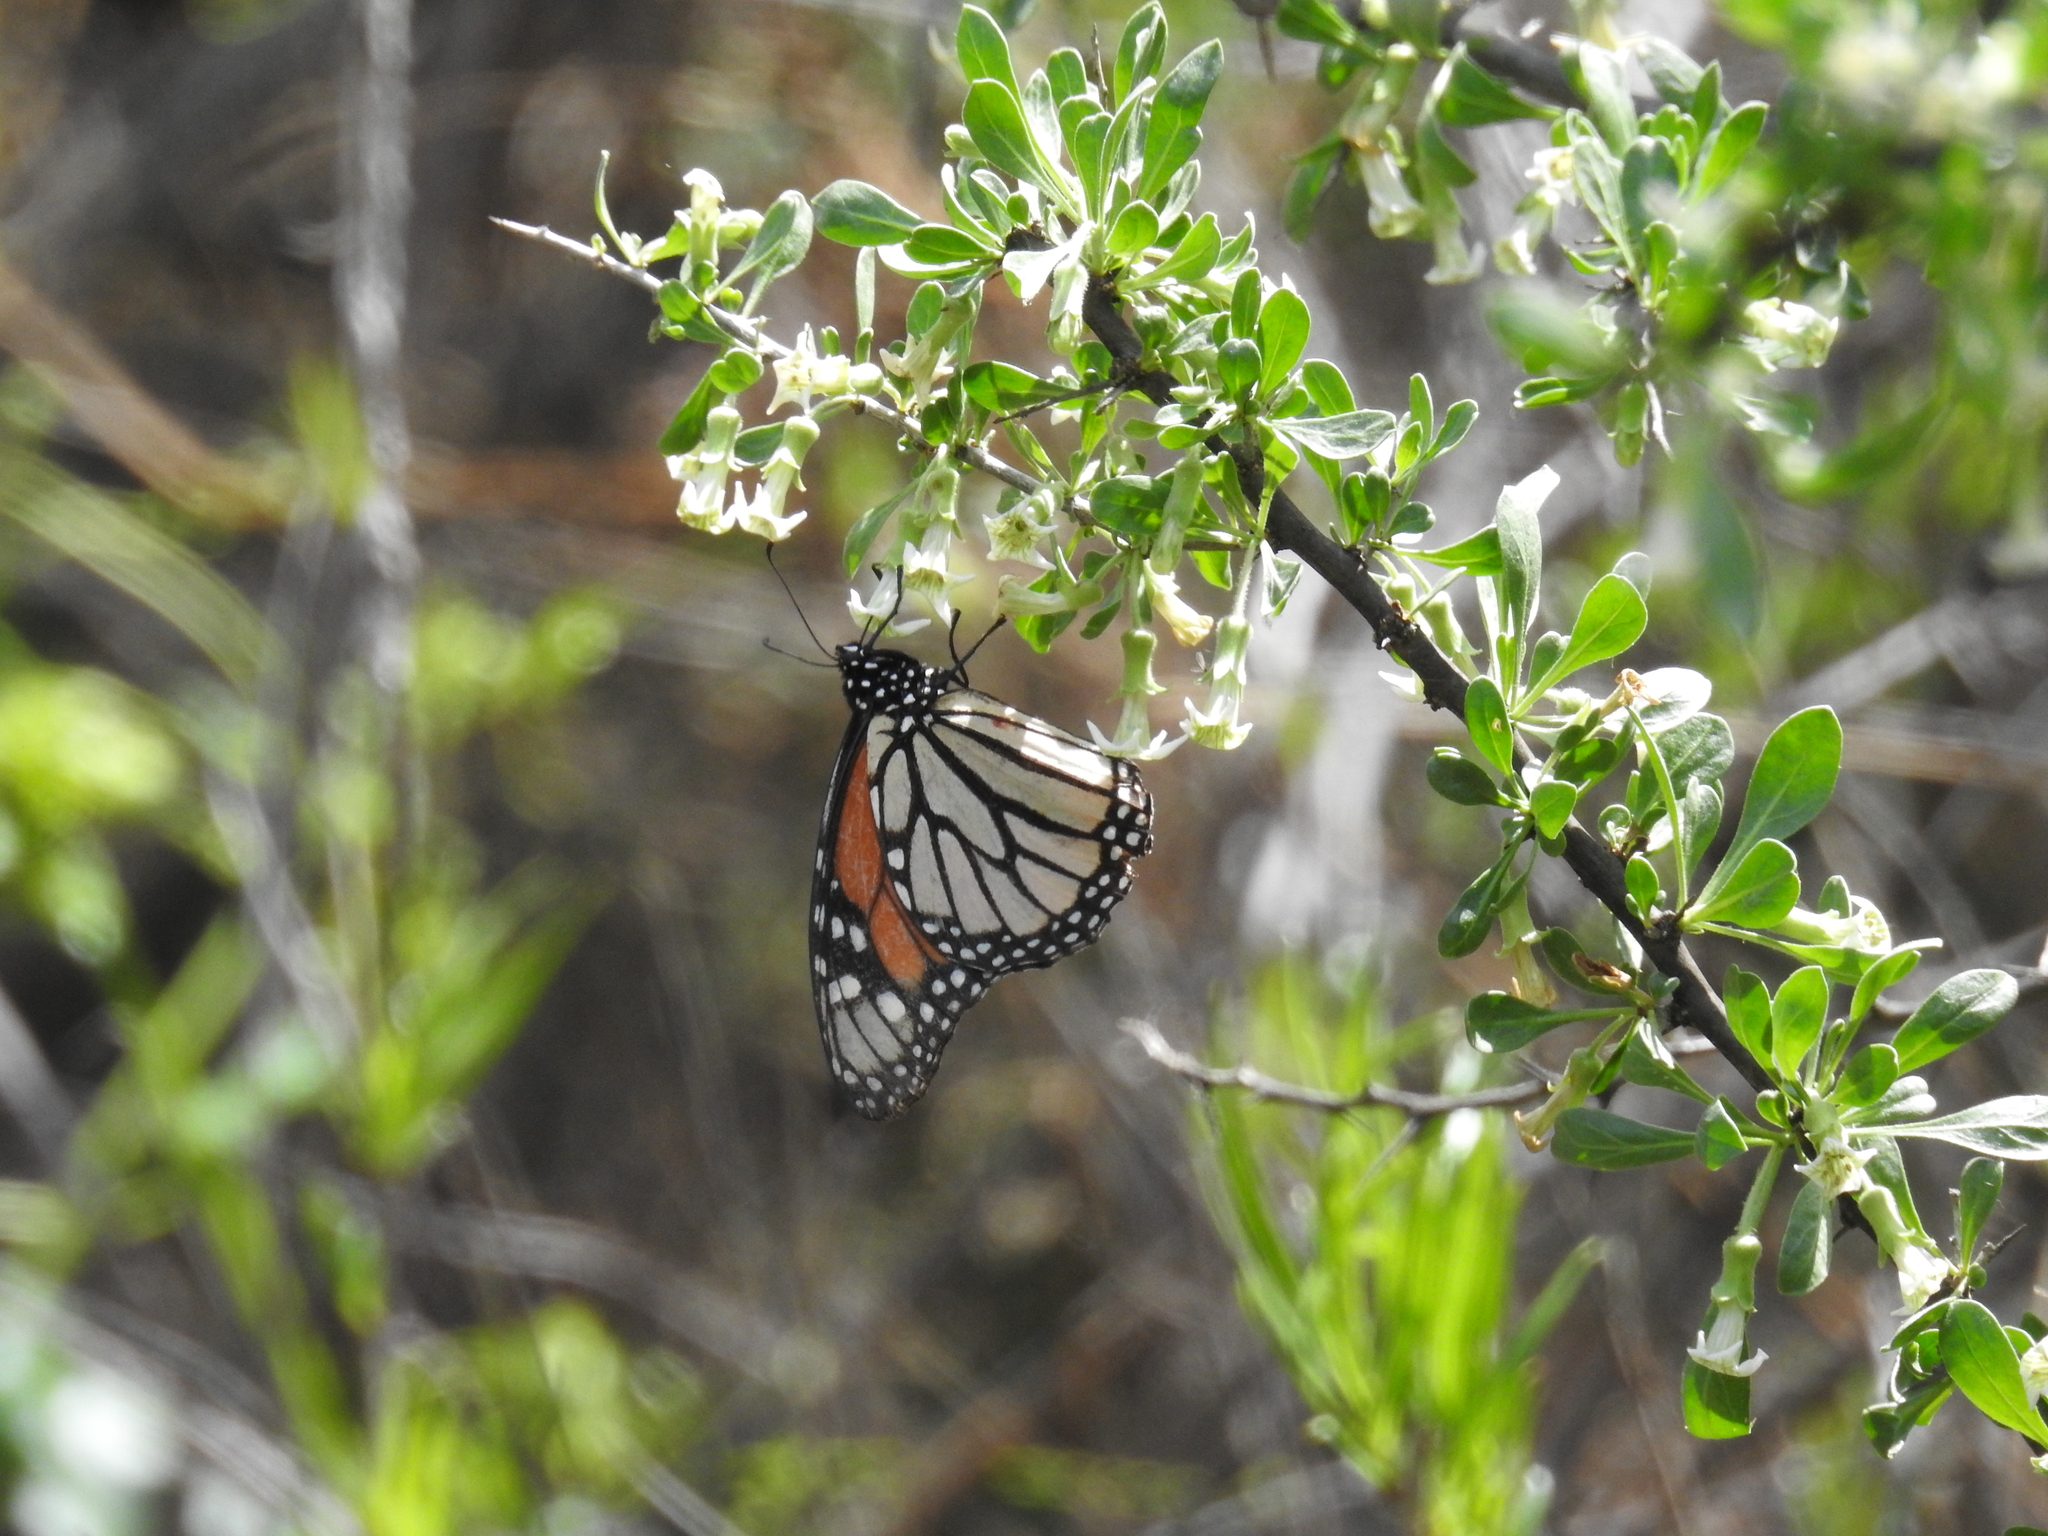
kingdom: Animalia
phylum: Arthropoda
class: Insecta
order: Lepidoptera
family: Nymphalidae
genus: Danaus
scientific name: Danaus plexippus
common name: Monarch
